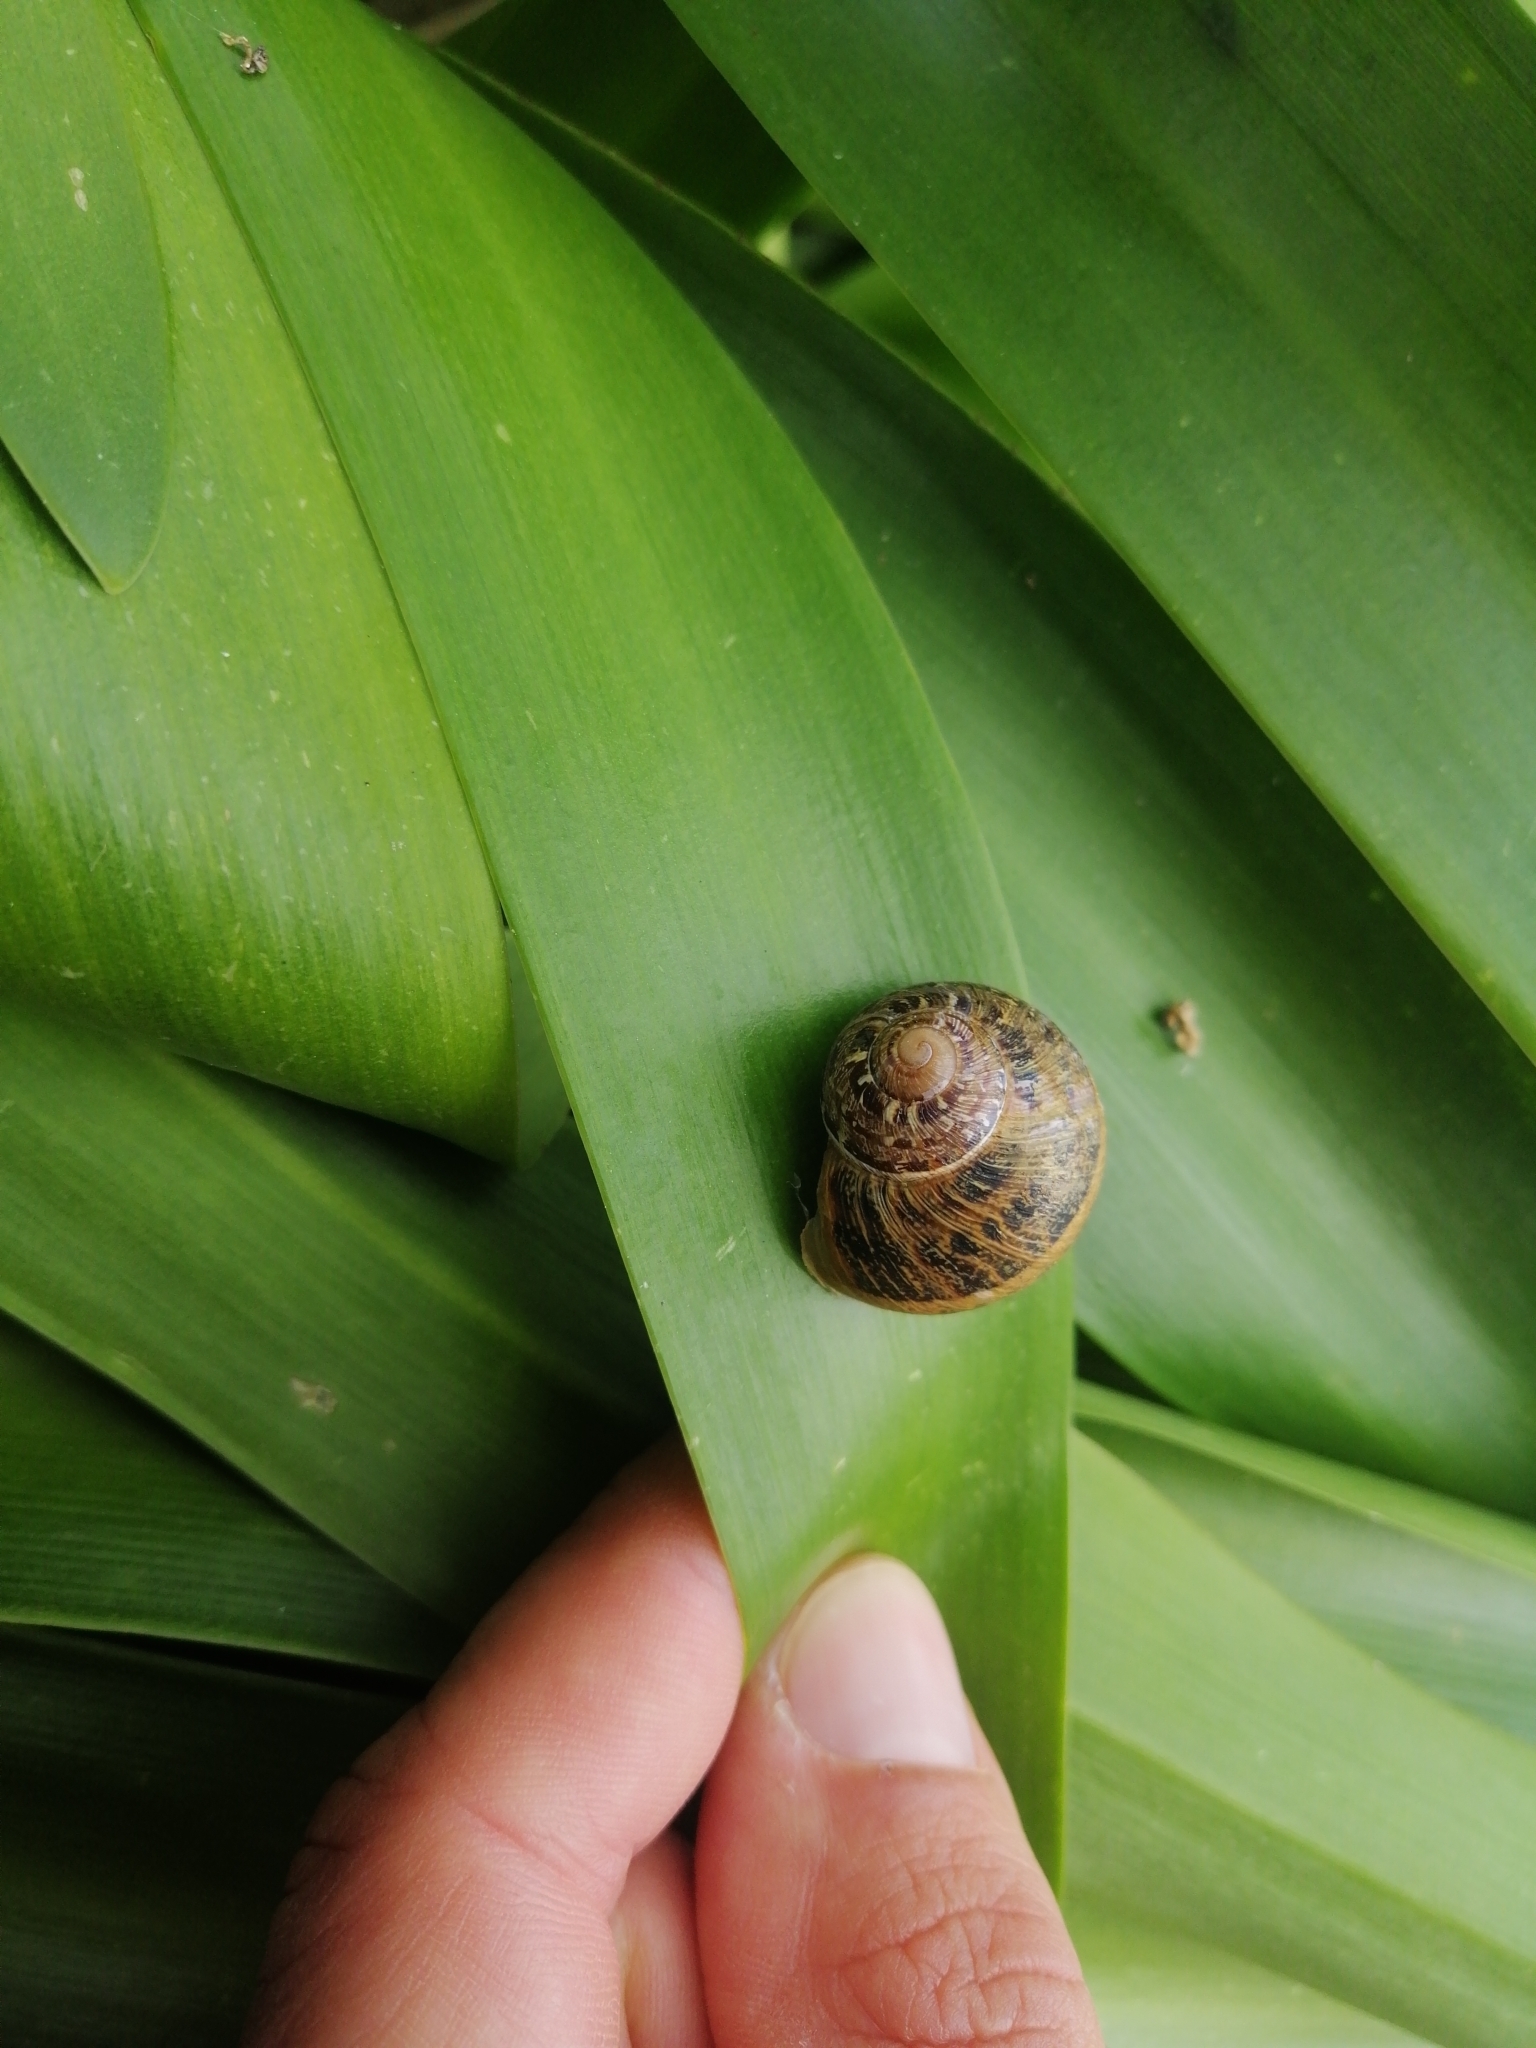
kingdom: Animalia
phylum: Mollusca
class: Gastropoda
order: Stylommatophora
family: Helicidae
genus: Cornu
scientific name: Cornu aspersum
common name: Brown garden snail
